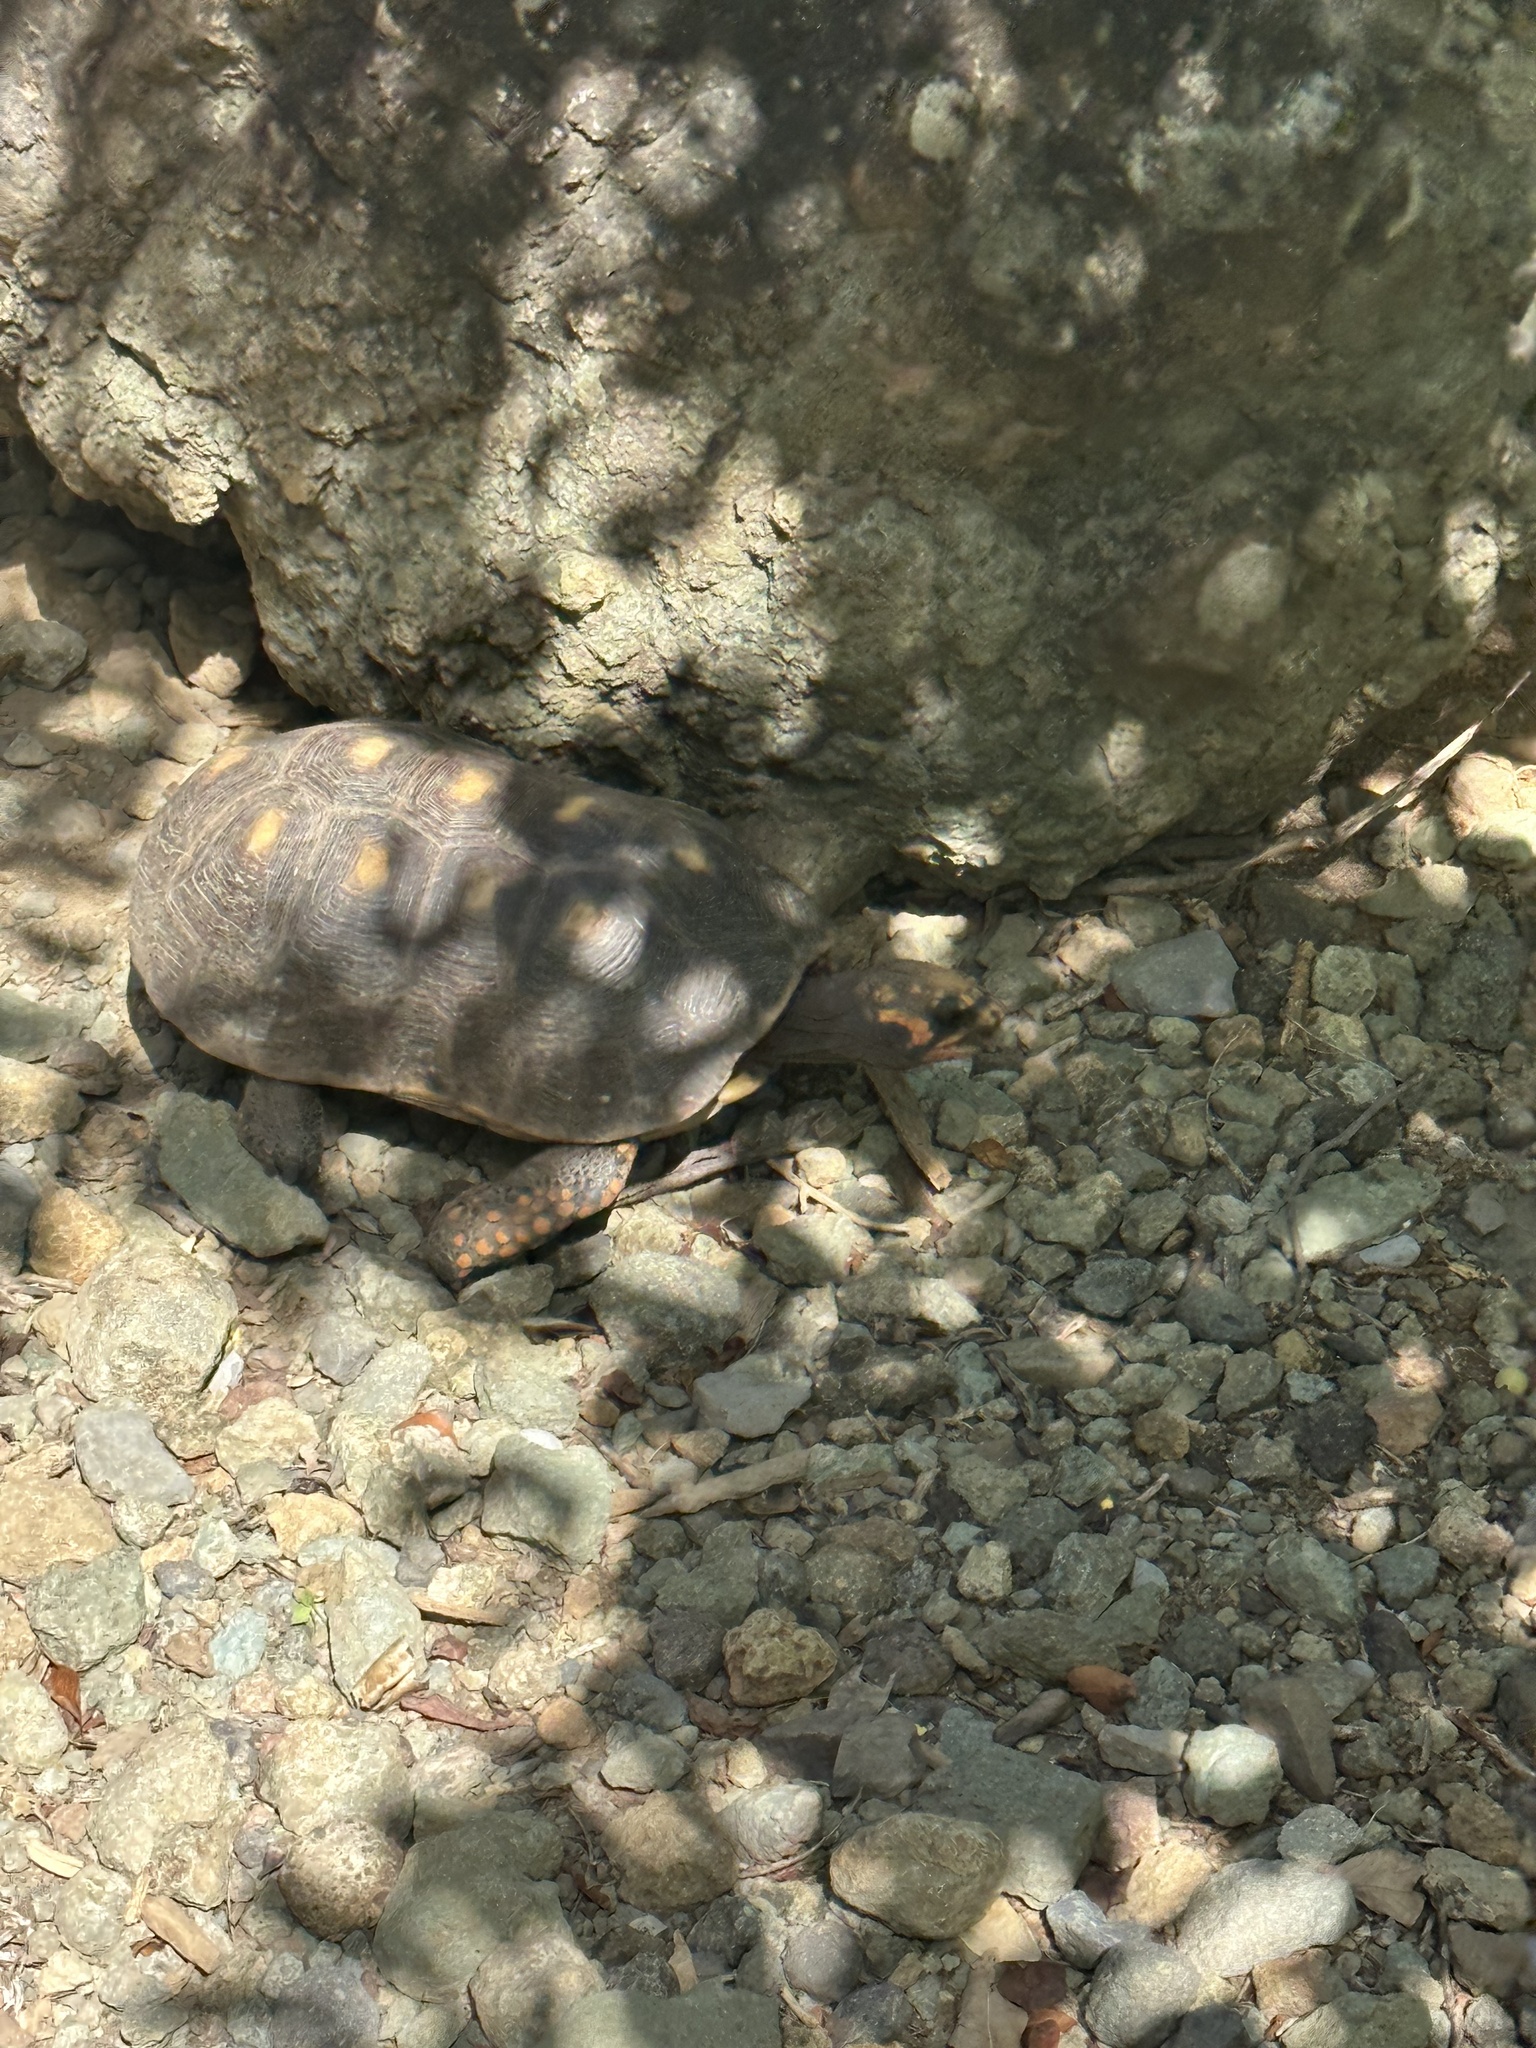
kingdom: Animalia
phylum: Chordata
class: Testudines
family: Testudinidae
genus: Chelonoidis
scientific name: Chelonoidis carbonarius
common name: Red-footed tortoise
